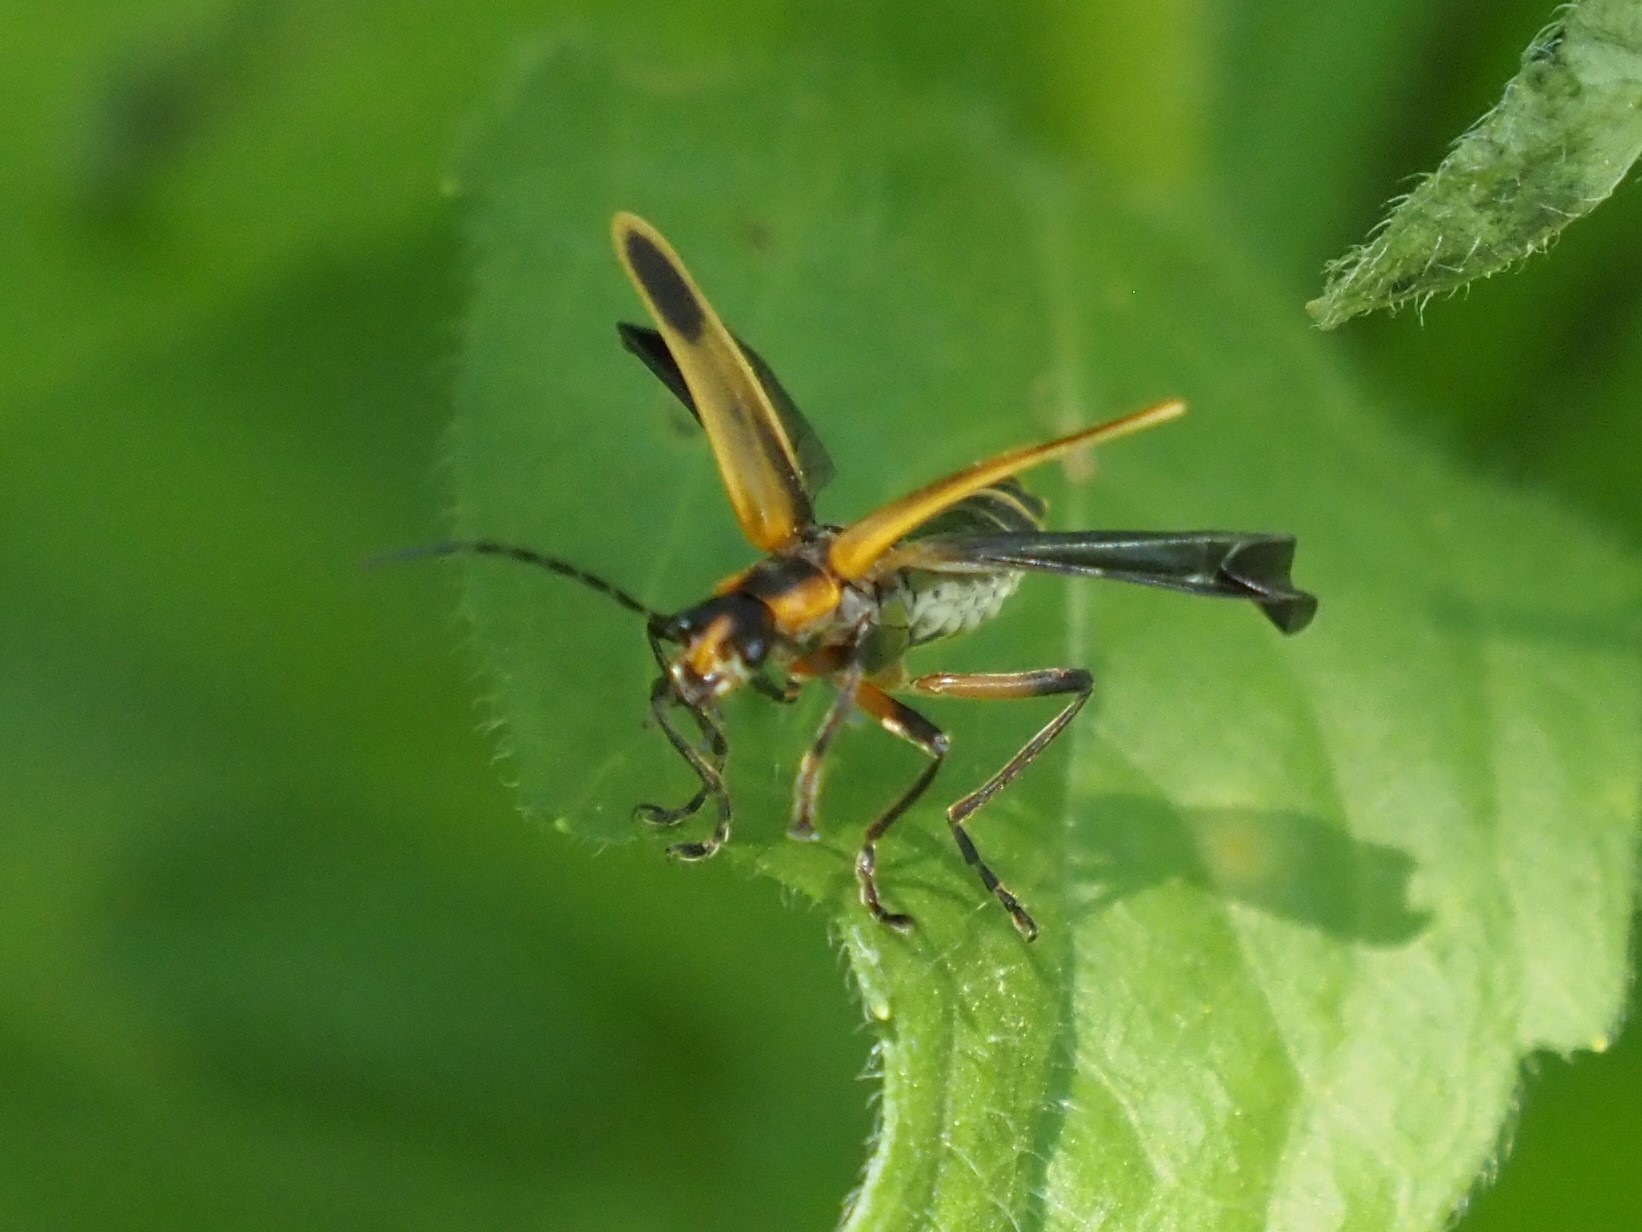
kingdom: Animalia
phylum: Arthropoda
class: Insecta
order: Coleoptera
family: Cantharidae
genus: Chauliognathus
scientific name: Chauliognathus marginatus
